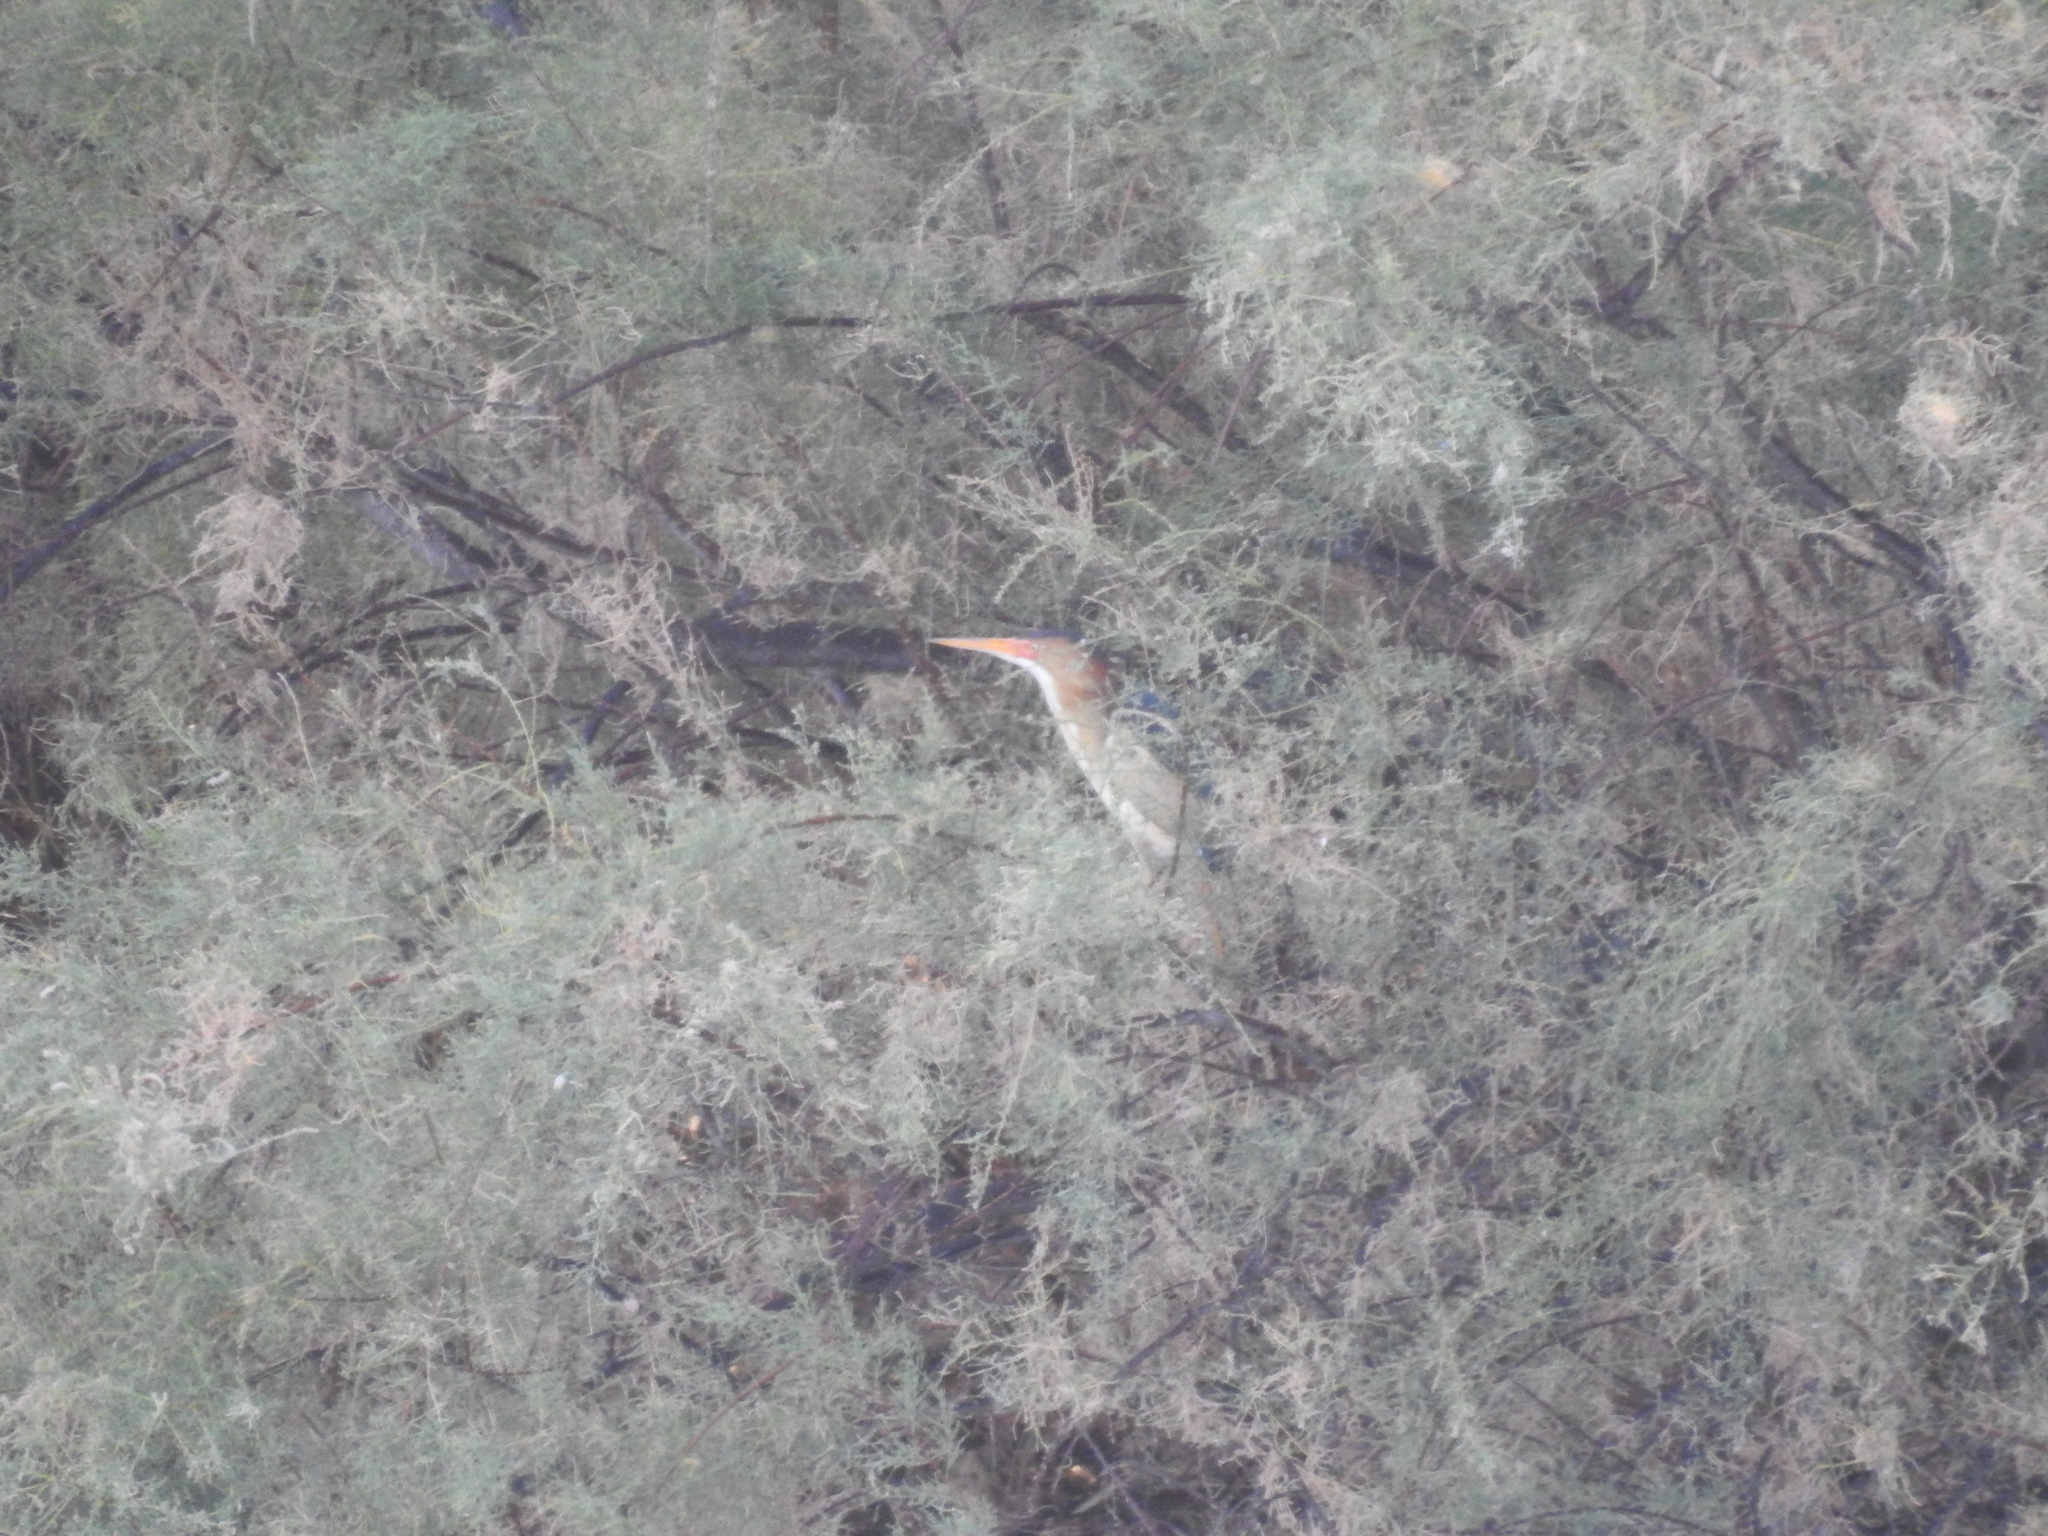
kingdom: Animalia
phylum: Chordata
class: Aves
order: Pelecaniformes
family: Ardeidae
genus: Ixobrychus
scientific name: Ixobrychus exilis
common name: Least bittern
